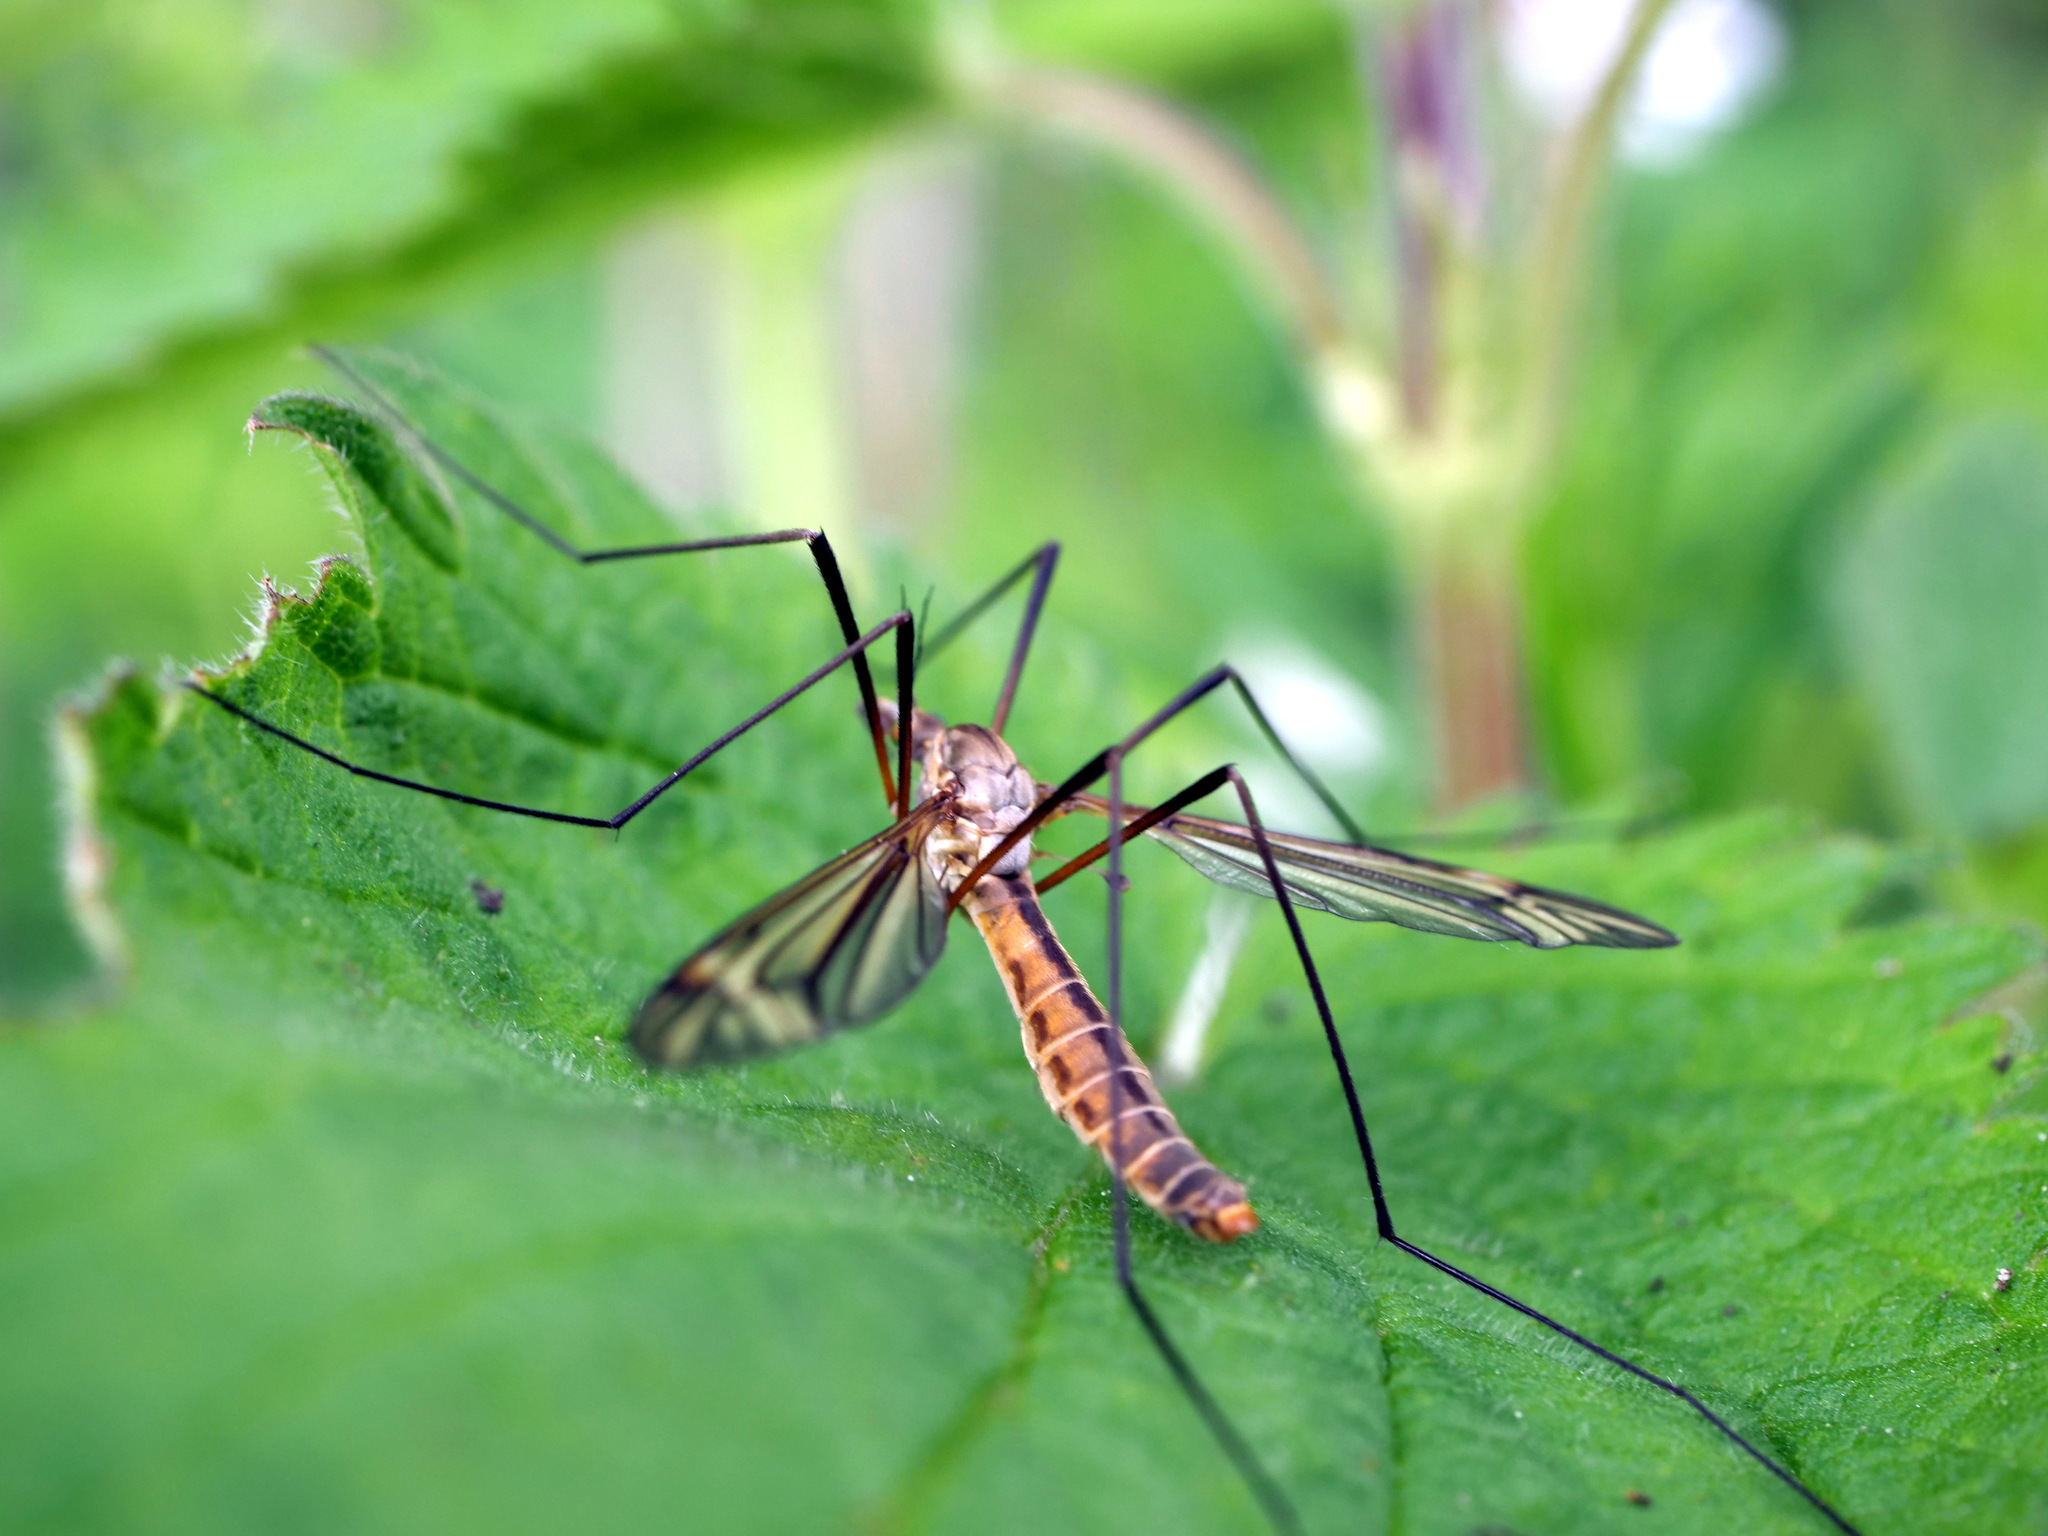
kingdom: Animalia
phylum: Arthropoda
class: Insecta
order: Diptera
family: Tipulidae
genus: Tipula
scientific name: Tipula vernalis
